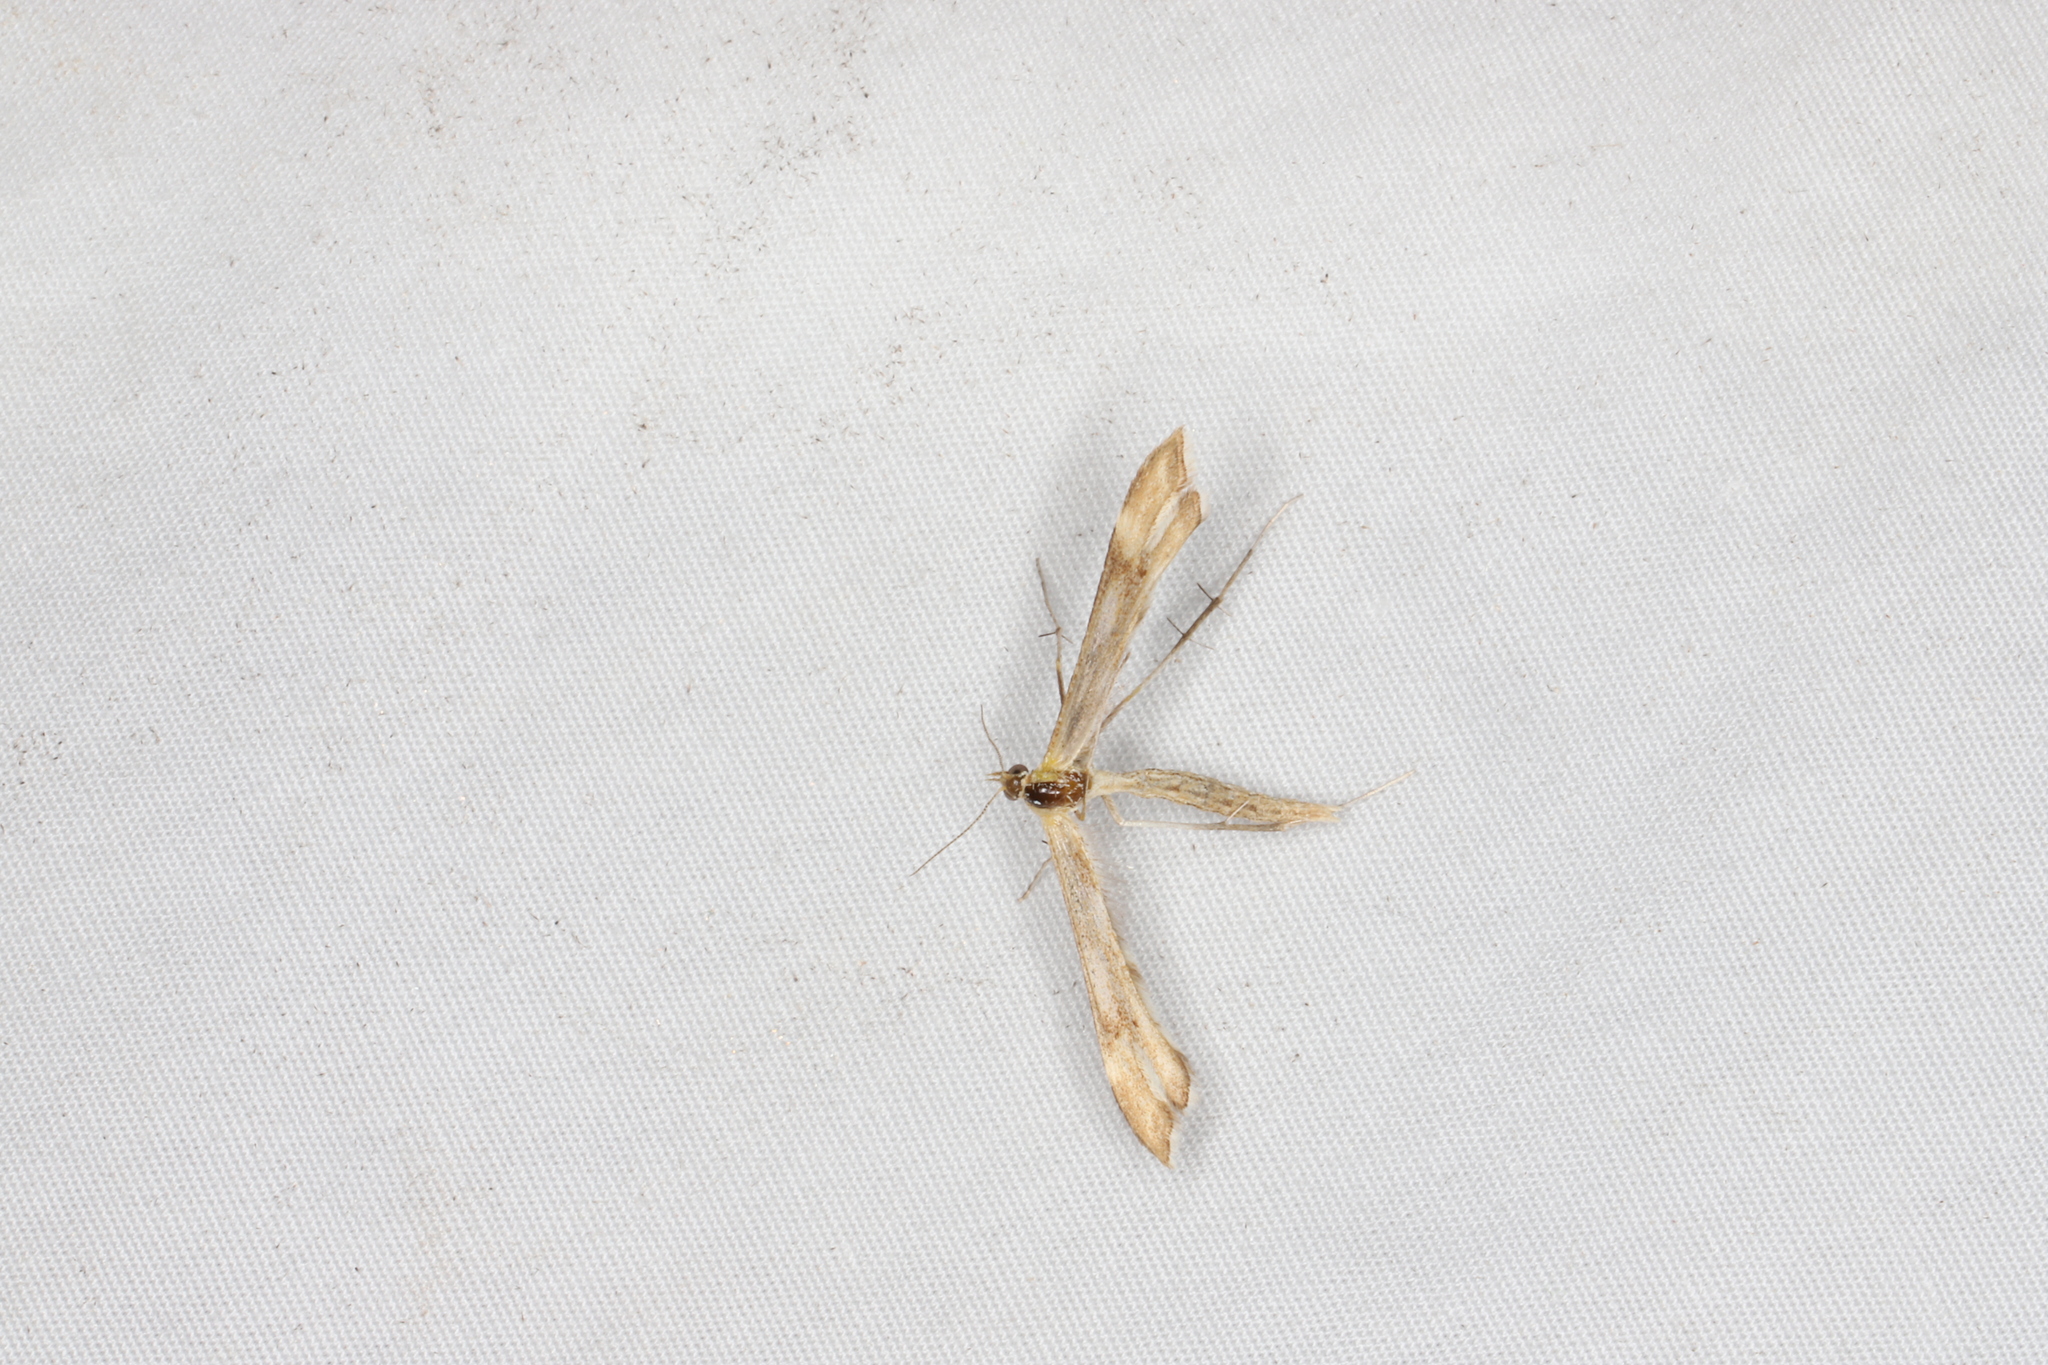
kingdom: Animalia
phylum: Arthropoda
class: Insecta
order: Lepidoptera
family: Pterophoridae
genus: Gillmeria
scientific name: Gillmeria pallidactyla
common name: Yarrow plume
